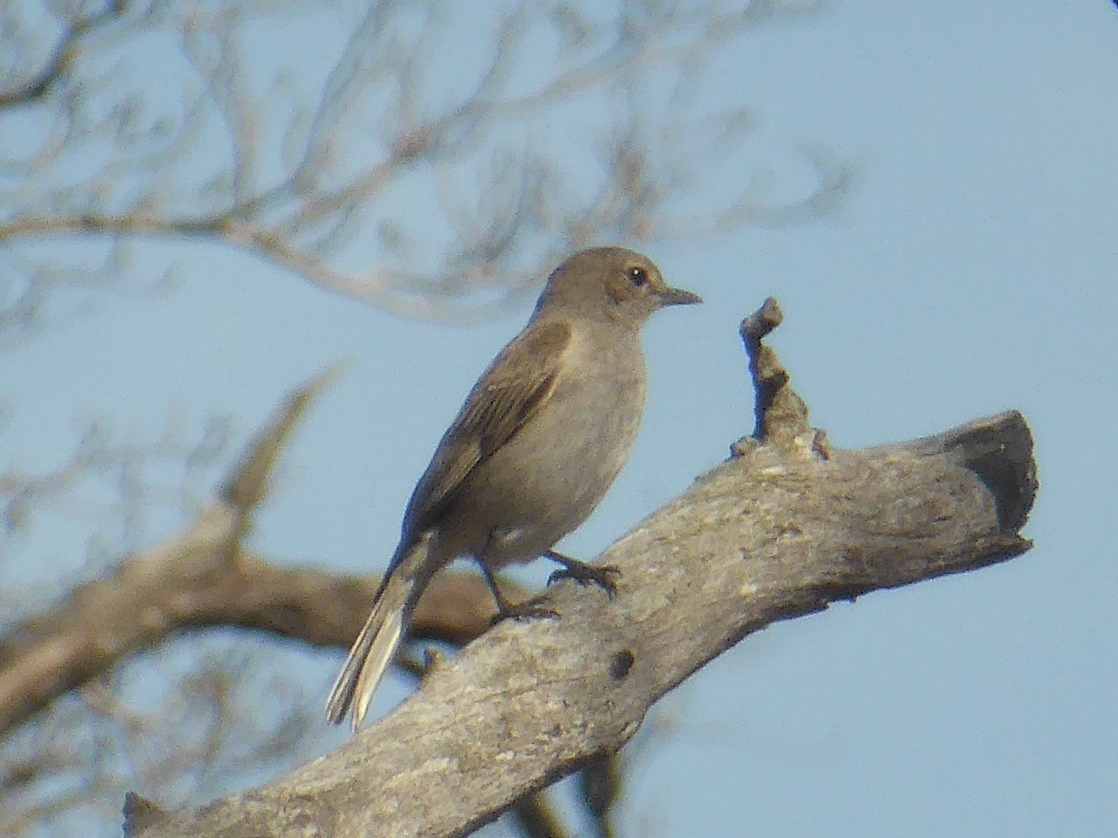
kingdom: Animalia
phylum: Chordata
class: Aves
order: Passeriformes
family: Muscicapidae
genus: Bradornis
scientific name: Bradornis pallidus
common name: Pale flycatcher
